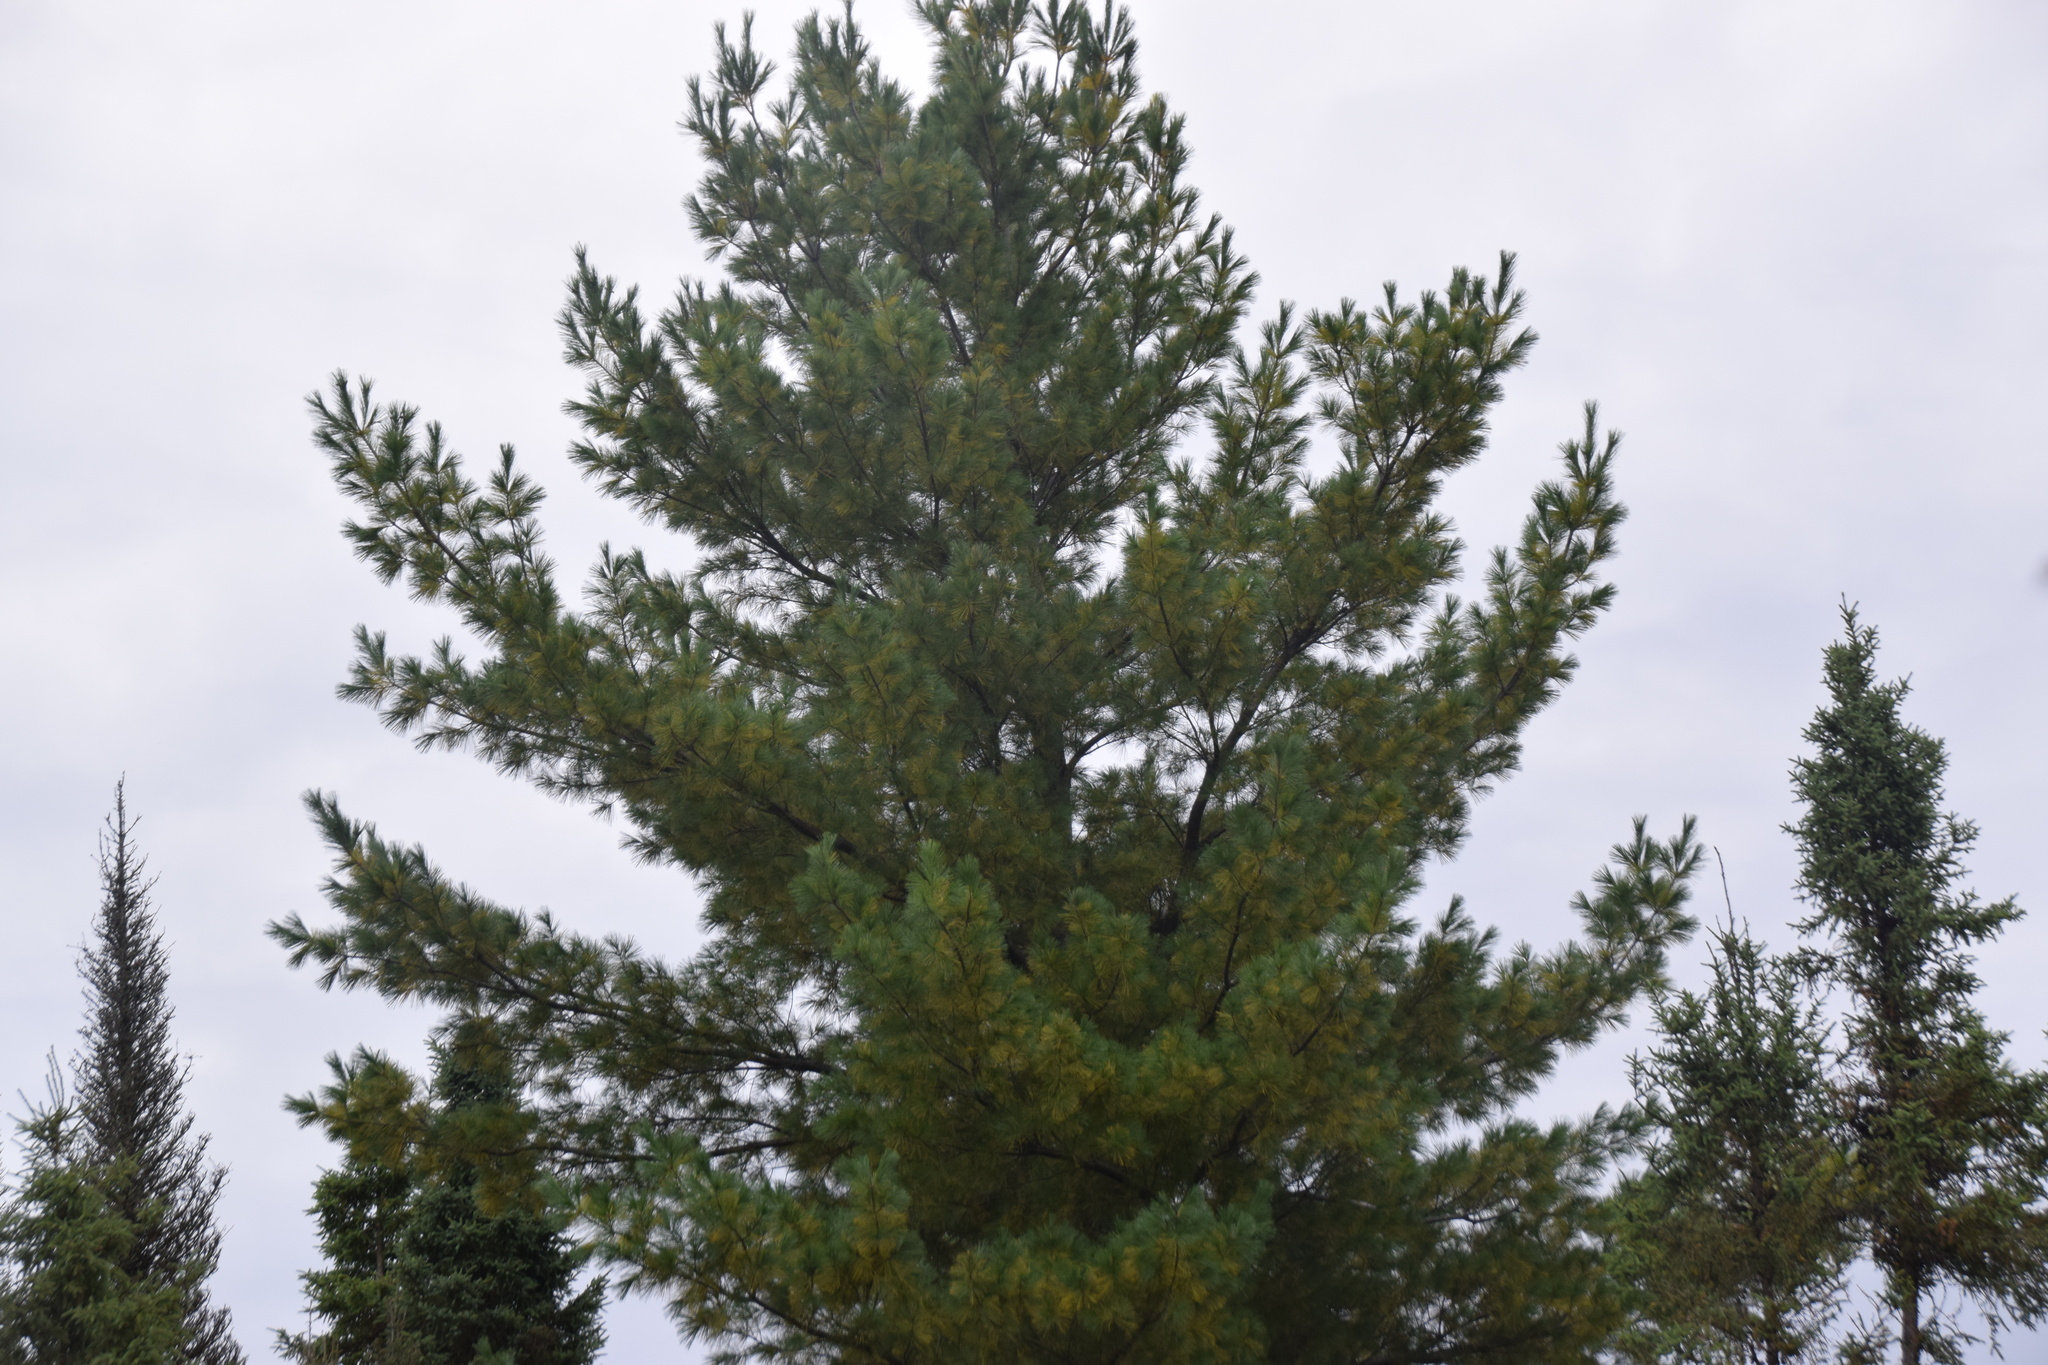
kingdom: Plantae
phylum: Tracheophyta
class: Pinopsida
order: Pinales
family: Pinaceae
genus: Pinus
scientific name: Pinus strobus
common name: Weymouth pine
